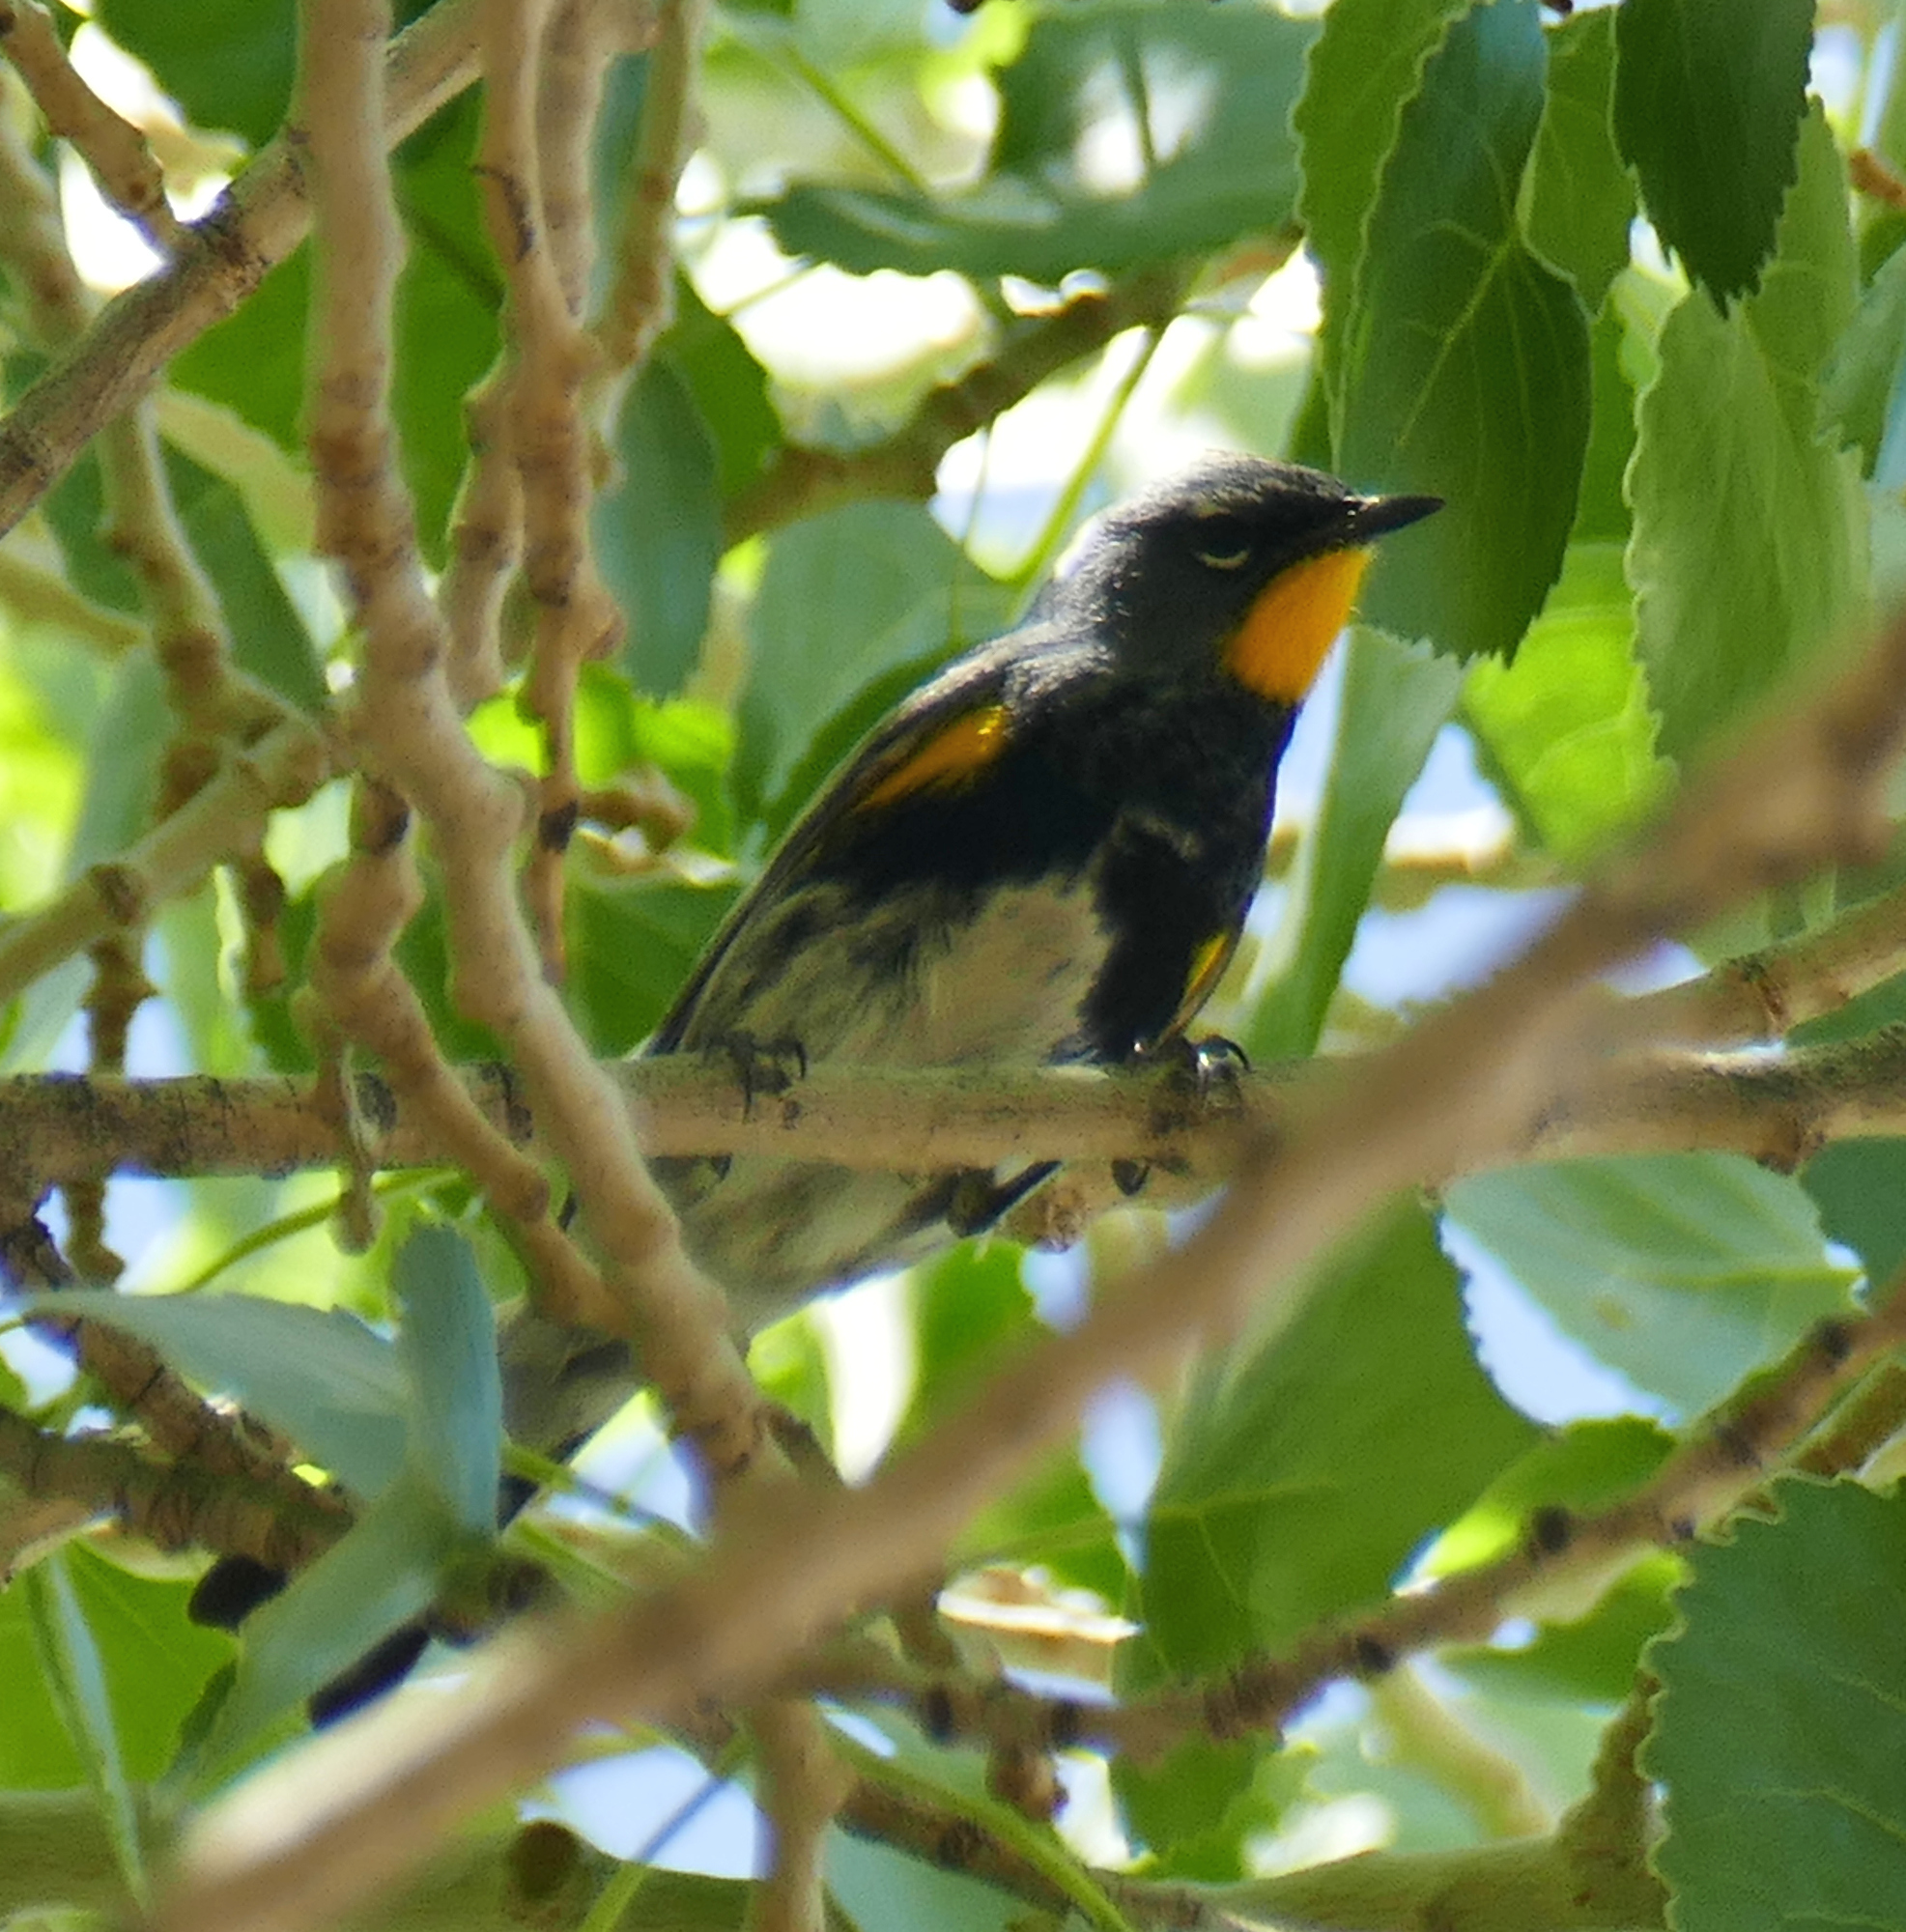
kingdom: Animalia
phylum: Chordata
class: Aves
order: Passeriformes
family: Parulidae
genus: Setophaga
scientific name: Setophaga auduboni
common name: Audubon's warbler
